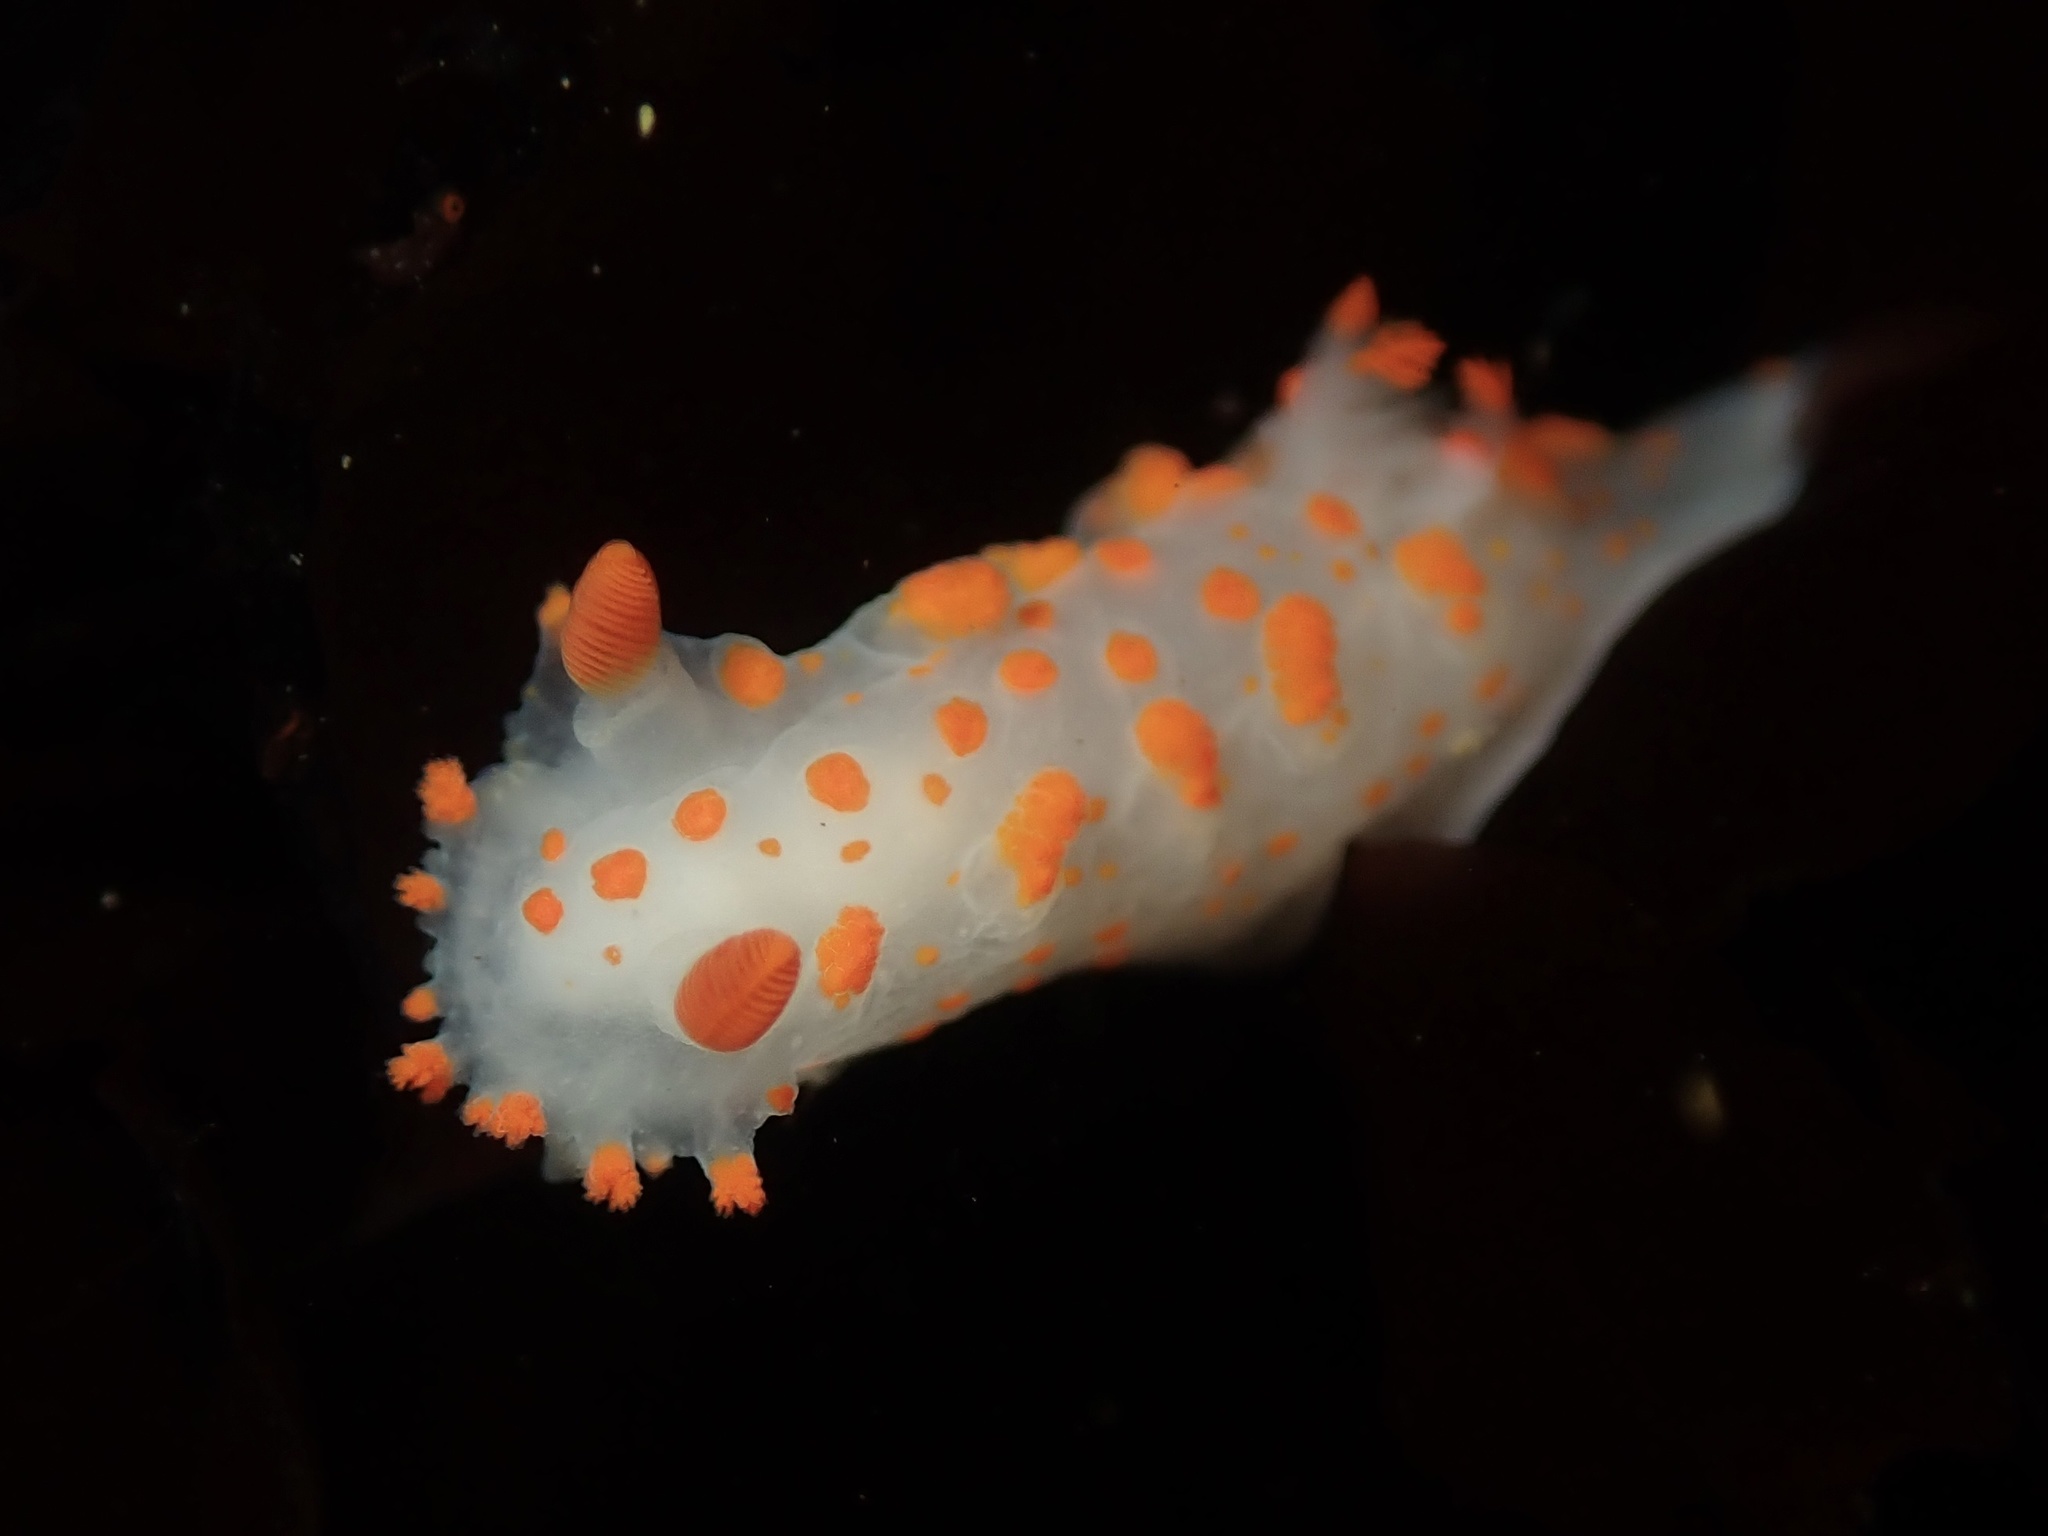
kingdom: Animalia
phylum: Mollusca
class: Gastropoda
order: Nudibranchia
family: Polyceridae
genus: Triopha
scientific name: Triopha catalinae
